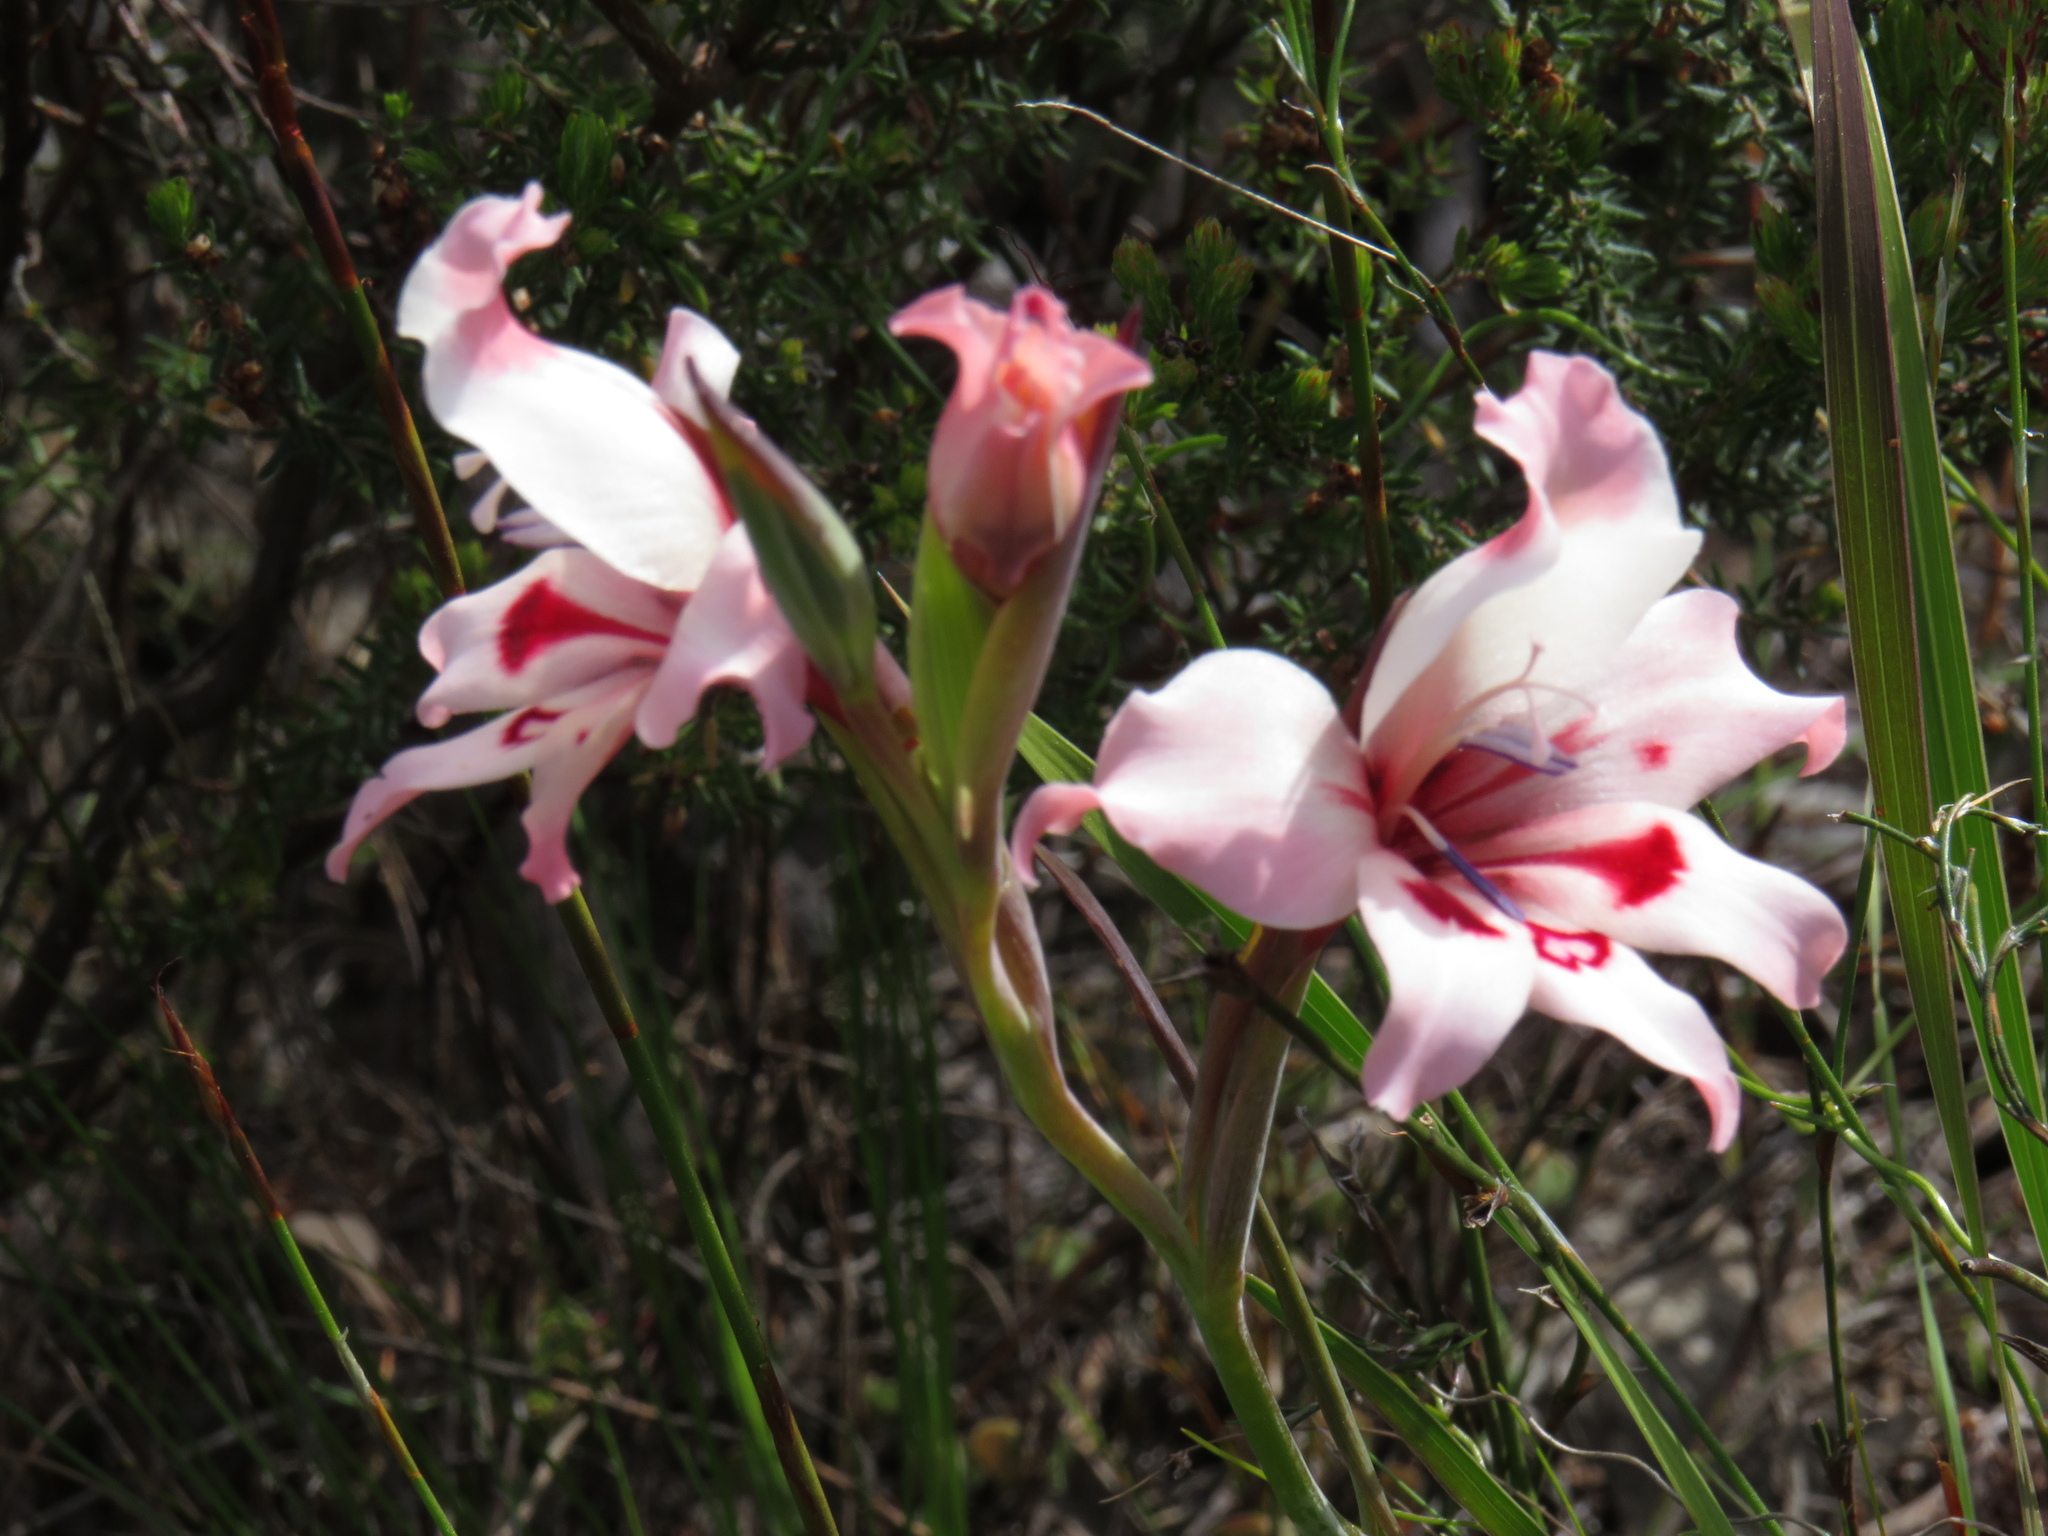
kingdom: Plantae
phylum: Tracheophyta
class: Liliopsida
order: Asparagales
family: Iridaceae
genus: Gladiolus
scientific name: Gladiolus carneus
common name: Painted-lady
